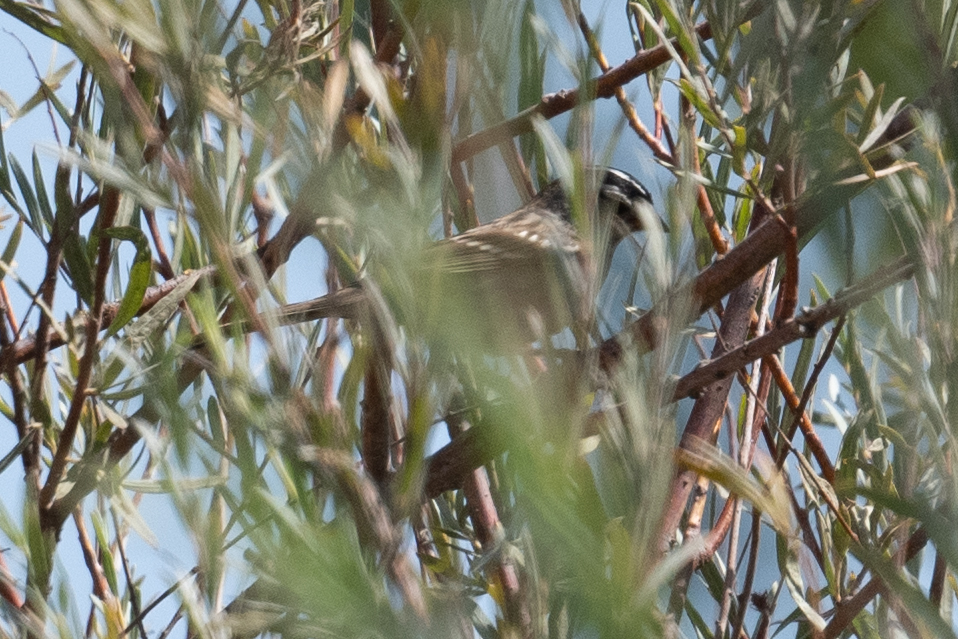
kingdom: Animalia
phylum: Chordata
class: Aves
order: Passeriformes
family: Passerellidae
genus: Zonotrichia
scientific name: Zonotrichia leucophrys
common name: White-crowned sparrow
